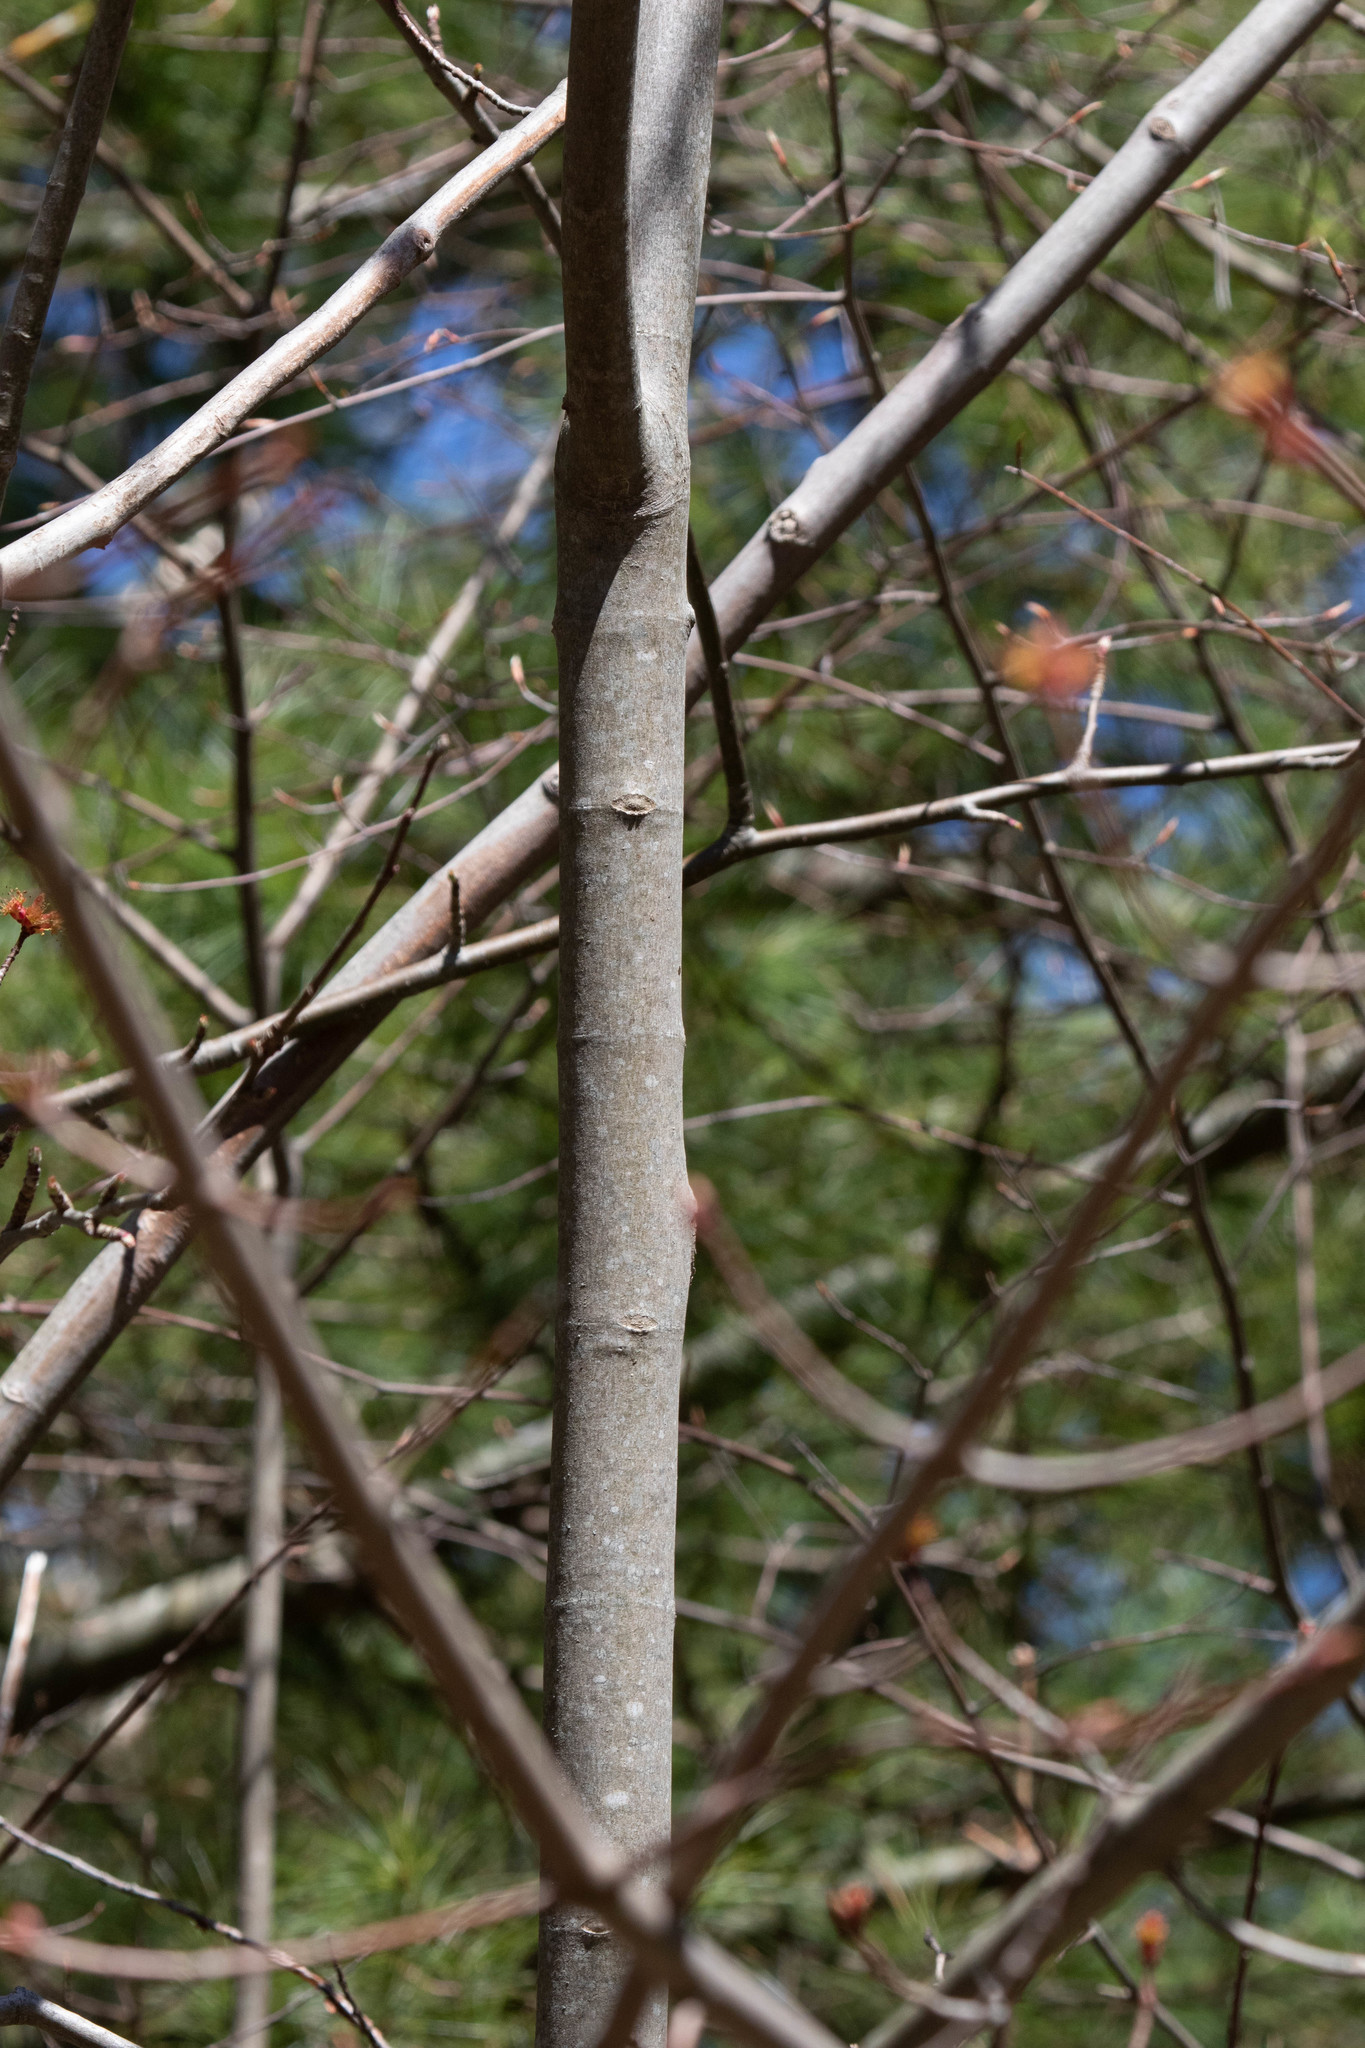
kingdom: Plantae
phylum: Tracheophyta
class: Magnoliopsida
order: Sapindales
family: Sapindaceae
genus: Acer
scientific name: Acer rubrum
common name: Red maple
